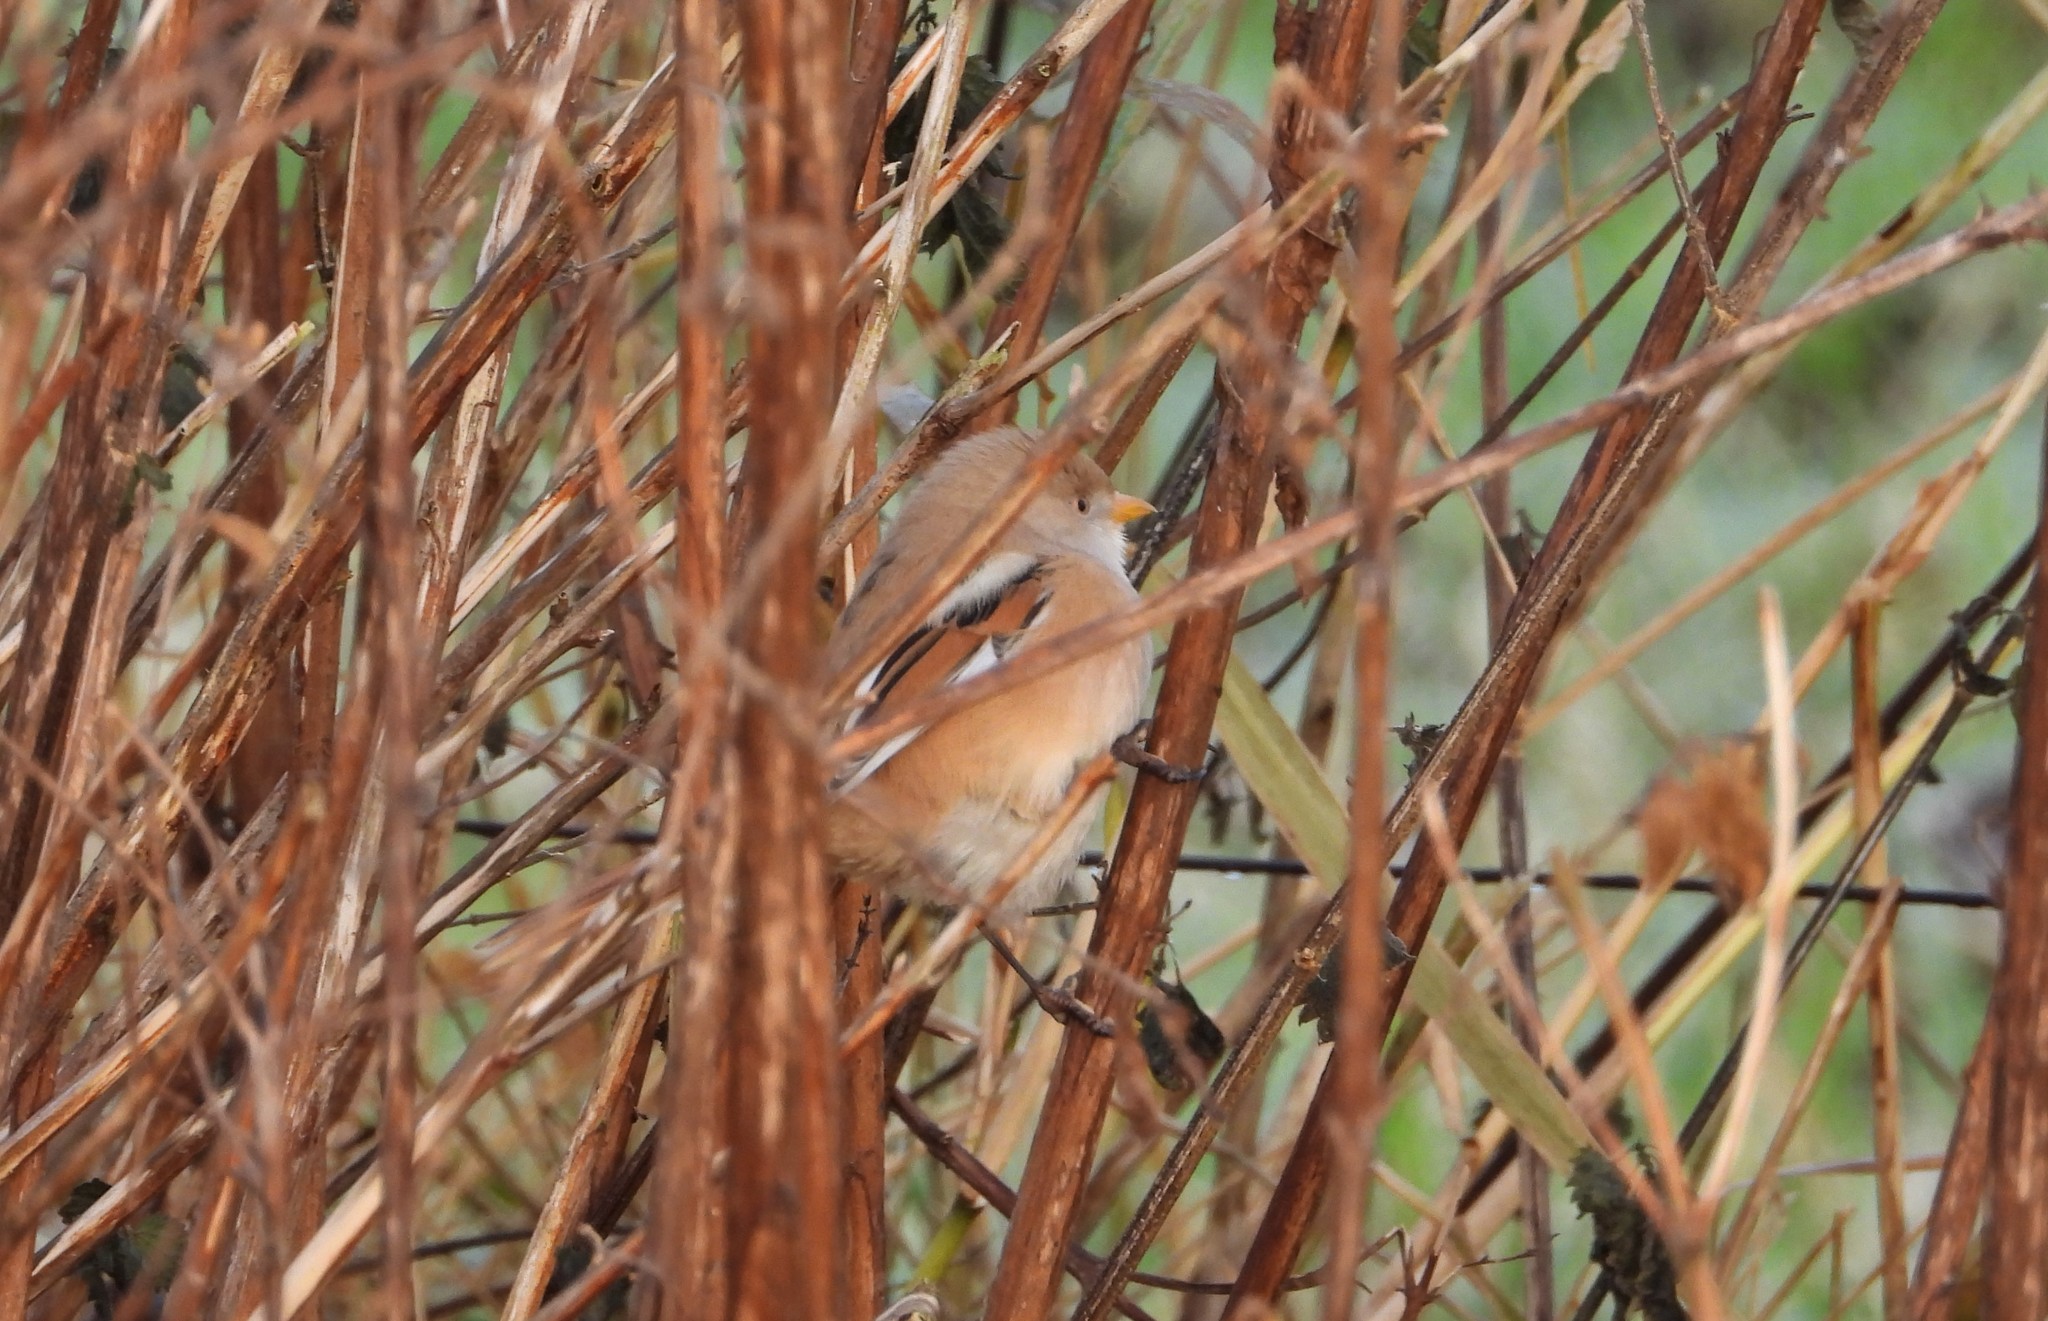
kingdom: Animalia
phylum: Chordata
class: Aves
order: Passeriformes
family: Panuridae
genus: Panurus
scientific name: Panurus biarmicus
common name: Bearded reedling
